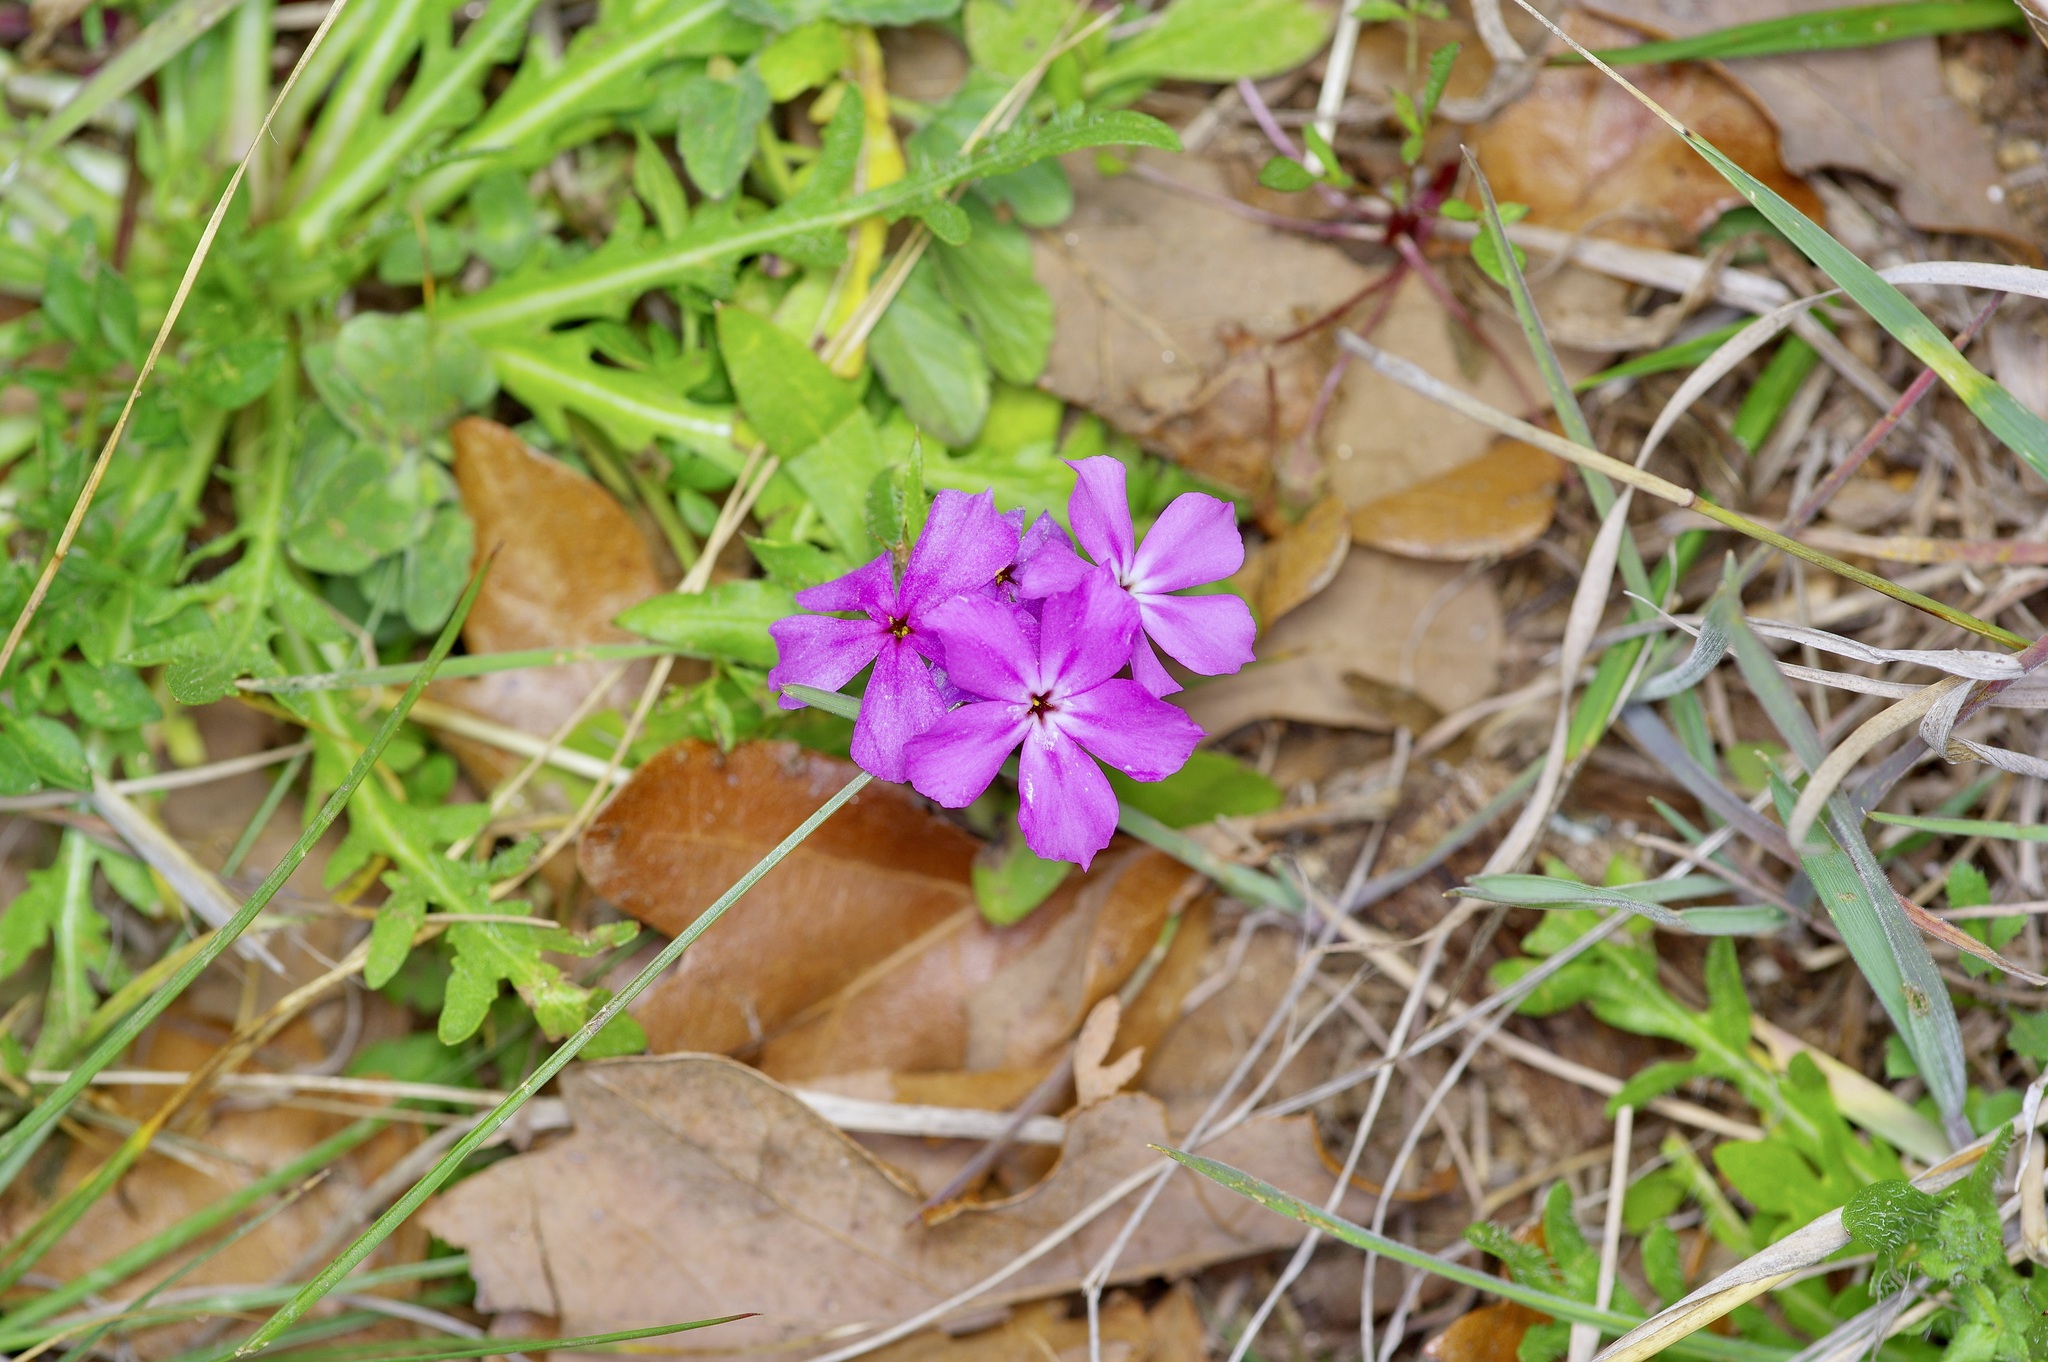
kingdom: Plantae
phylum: Tracheophyta
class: Magnoliopsida
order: Ericales
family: Polemoniaceae
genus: Phlox
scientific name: Phlox drummondii
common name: Drummond's phlox
